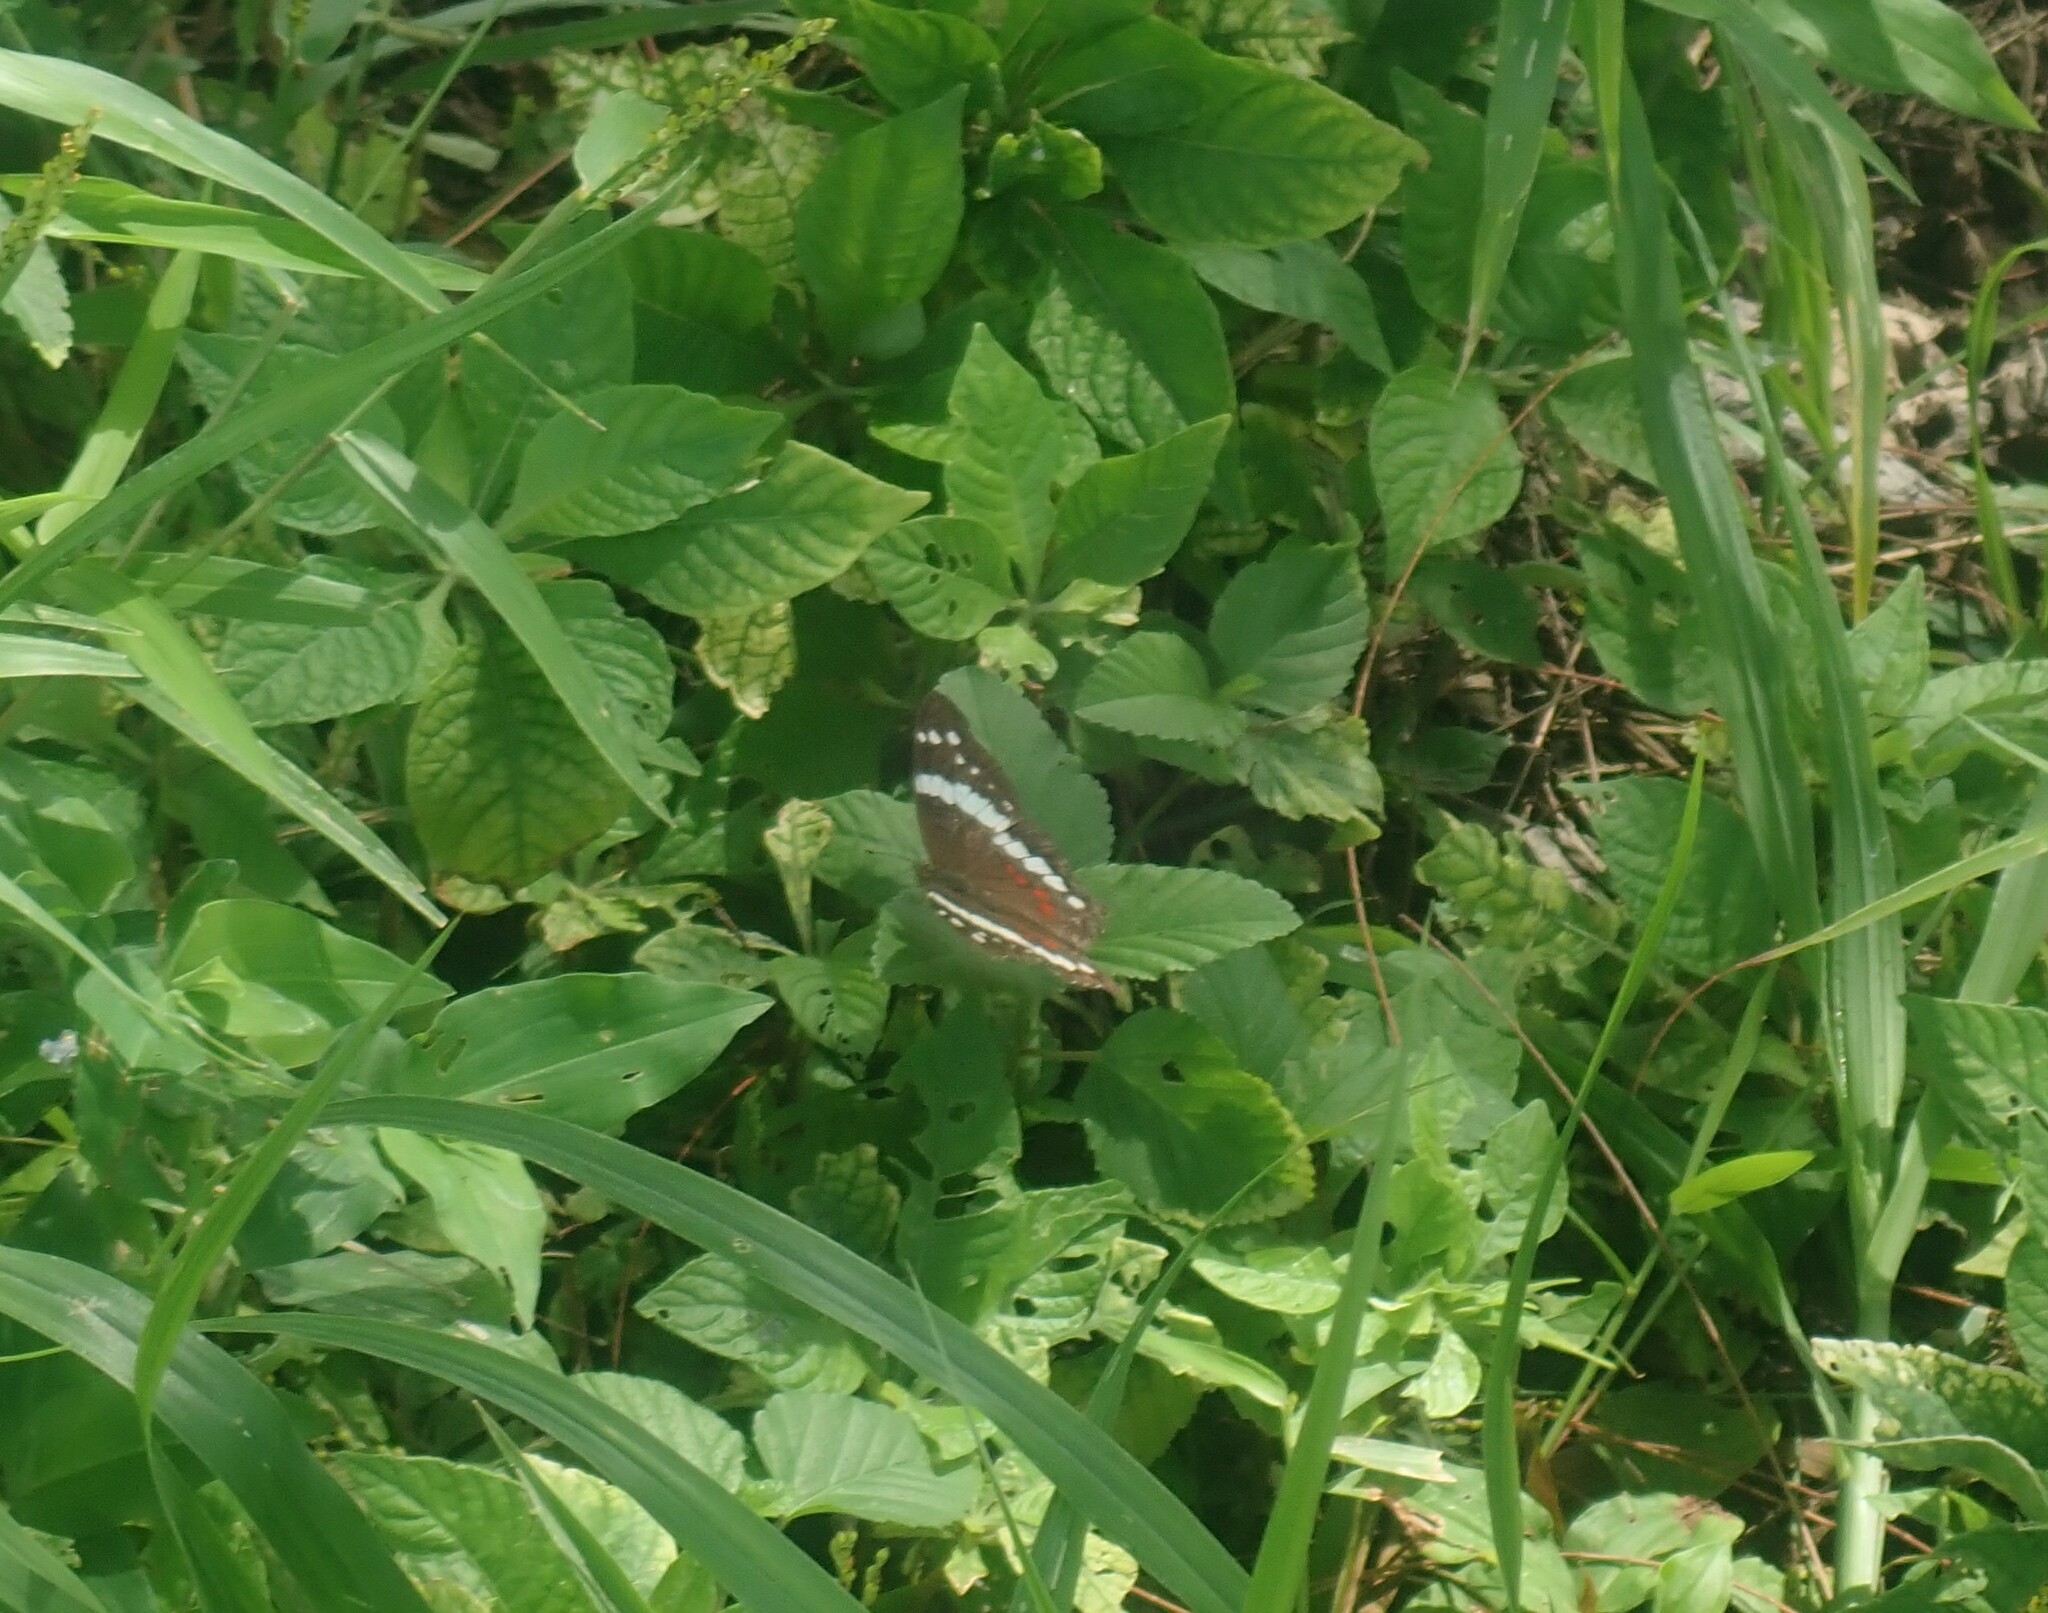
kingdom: Animalia
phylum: Arthropoda
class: Insecta
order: Lepidoptera
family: Nymphalidae
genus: Anartia
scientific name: Anartia fatima
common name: Banded peacock
